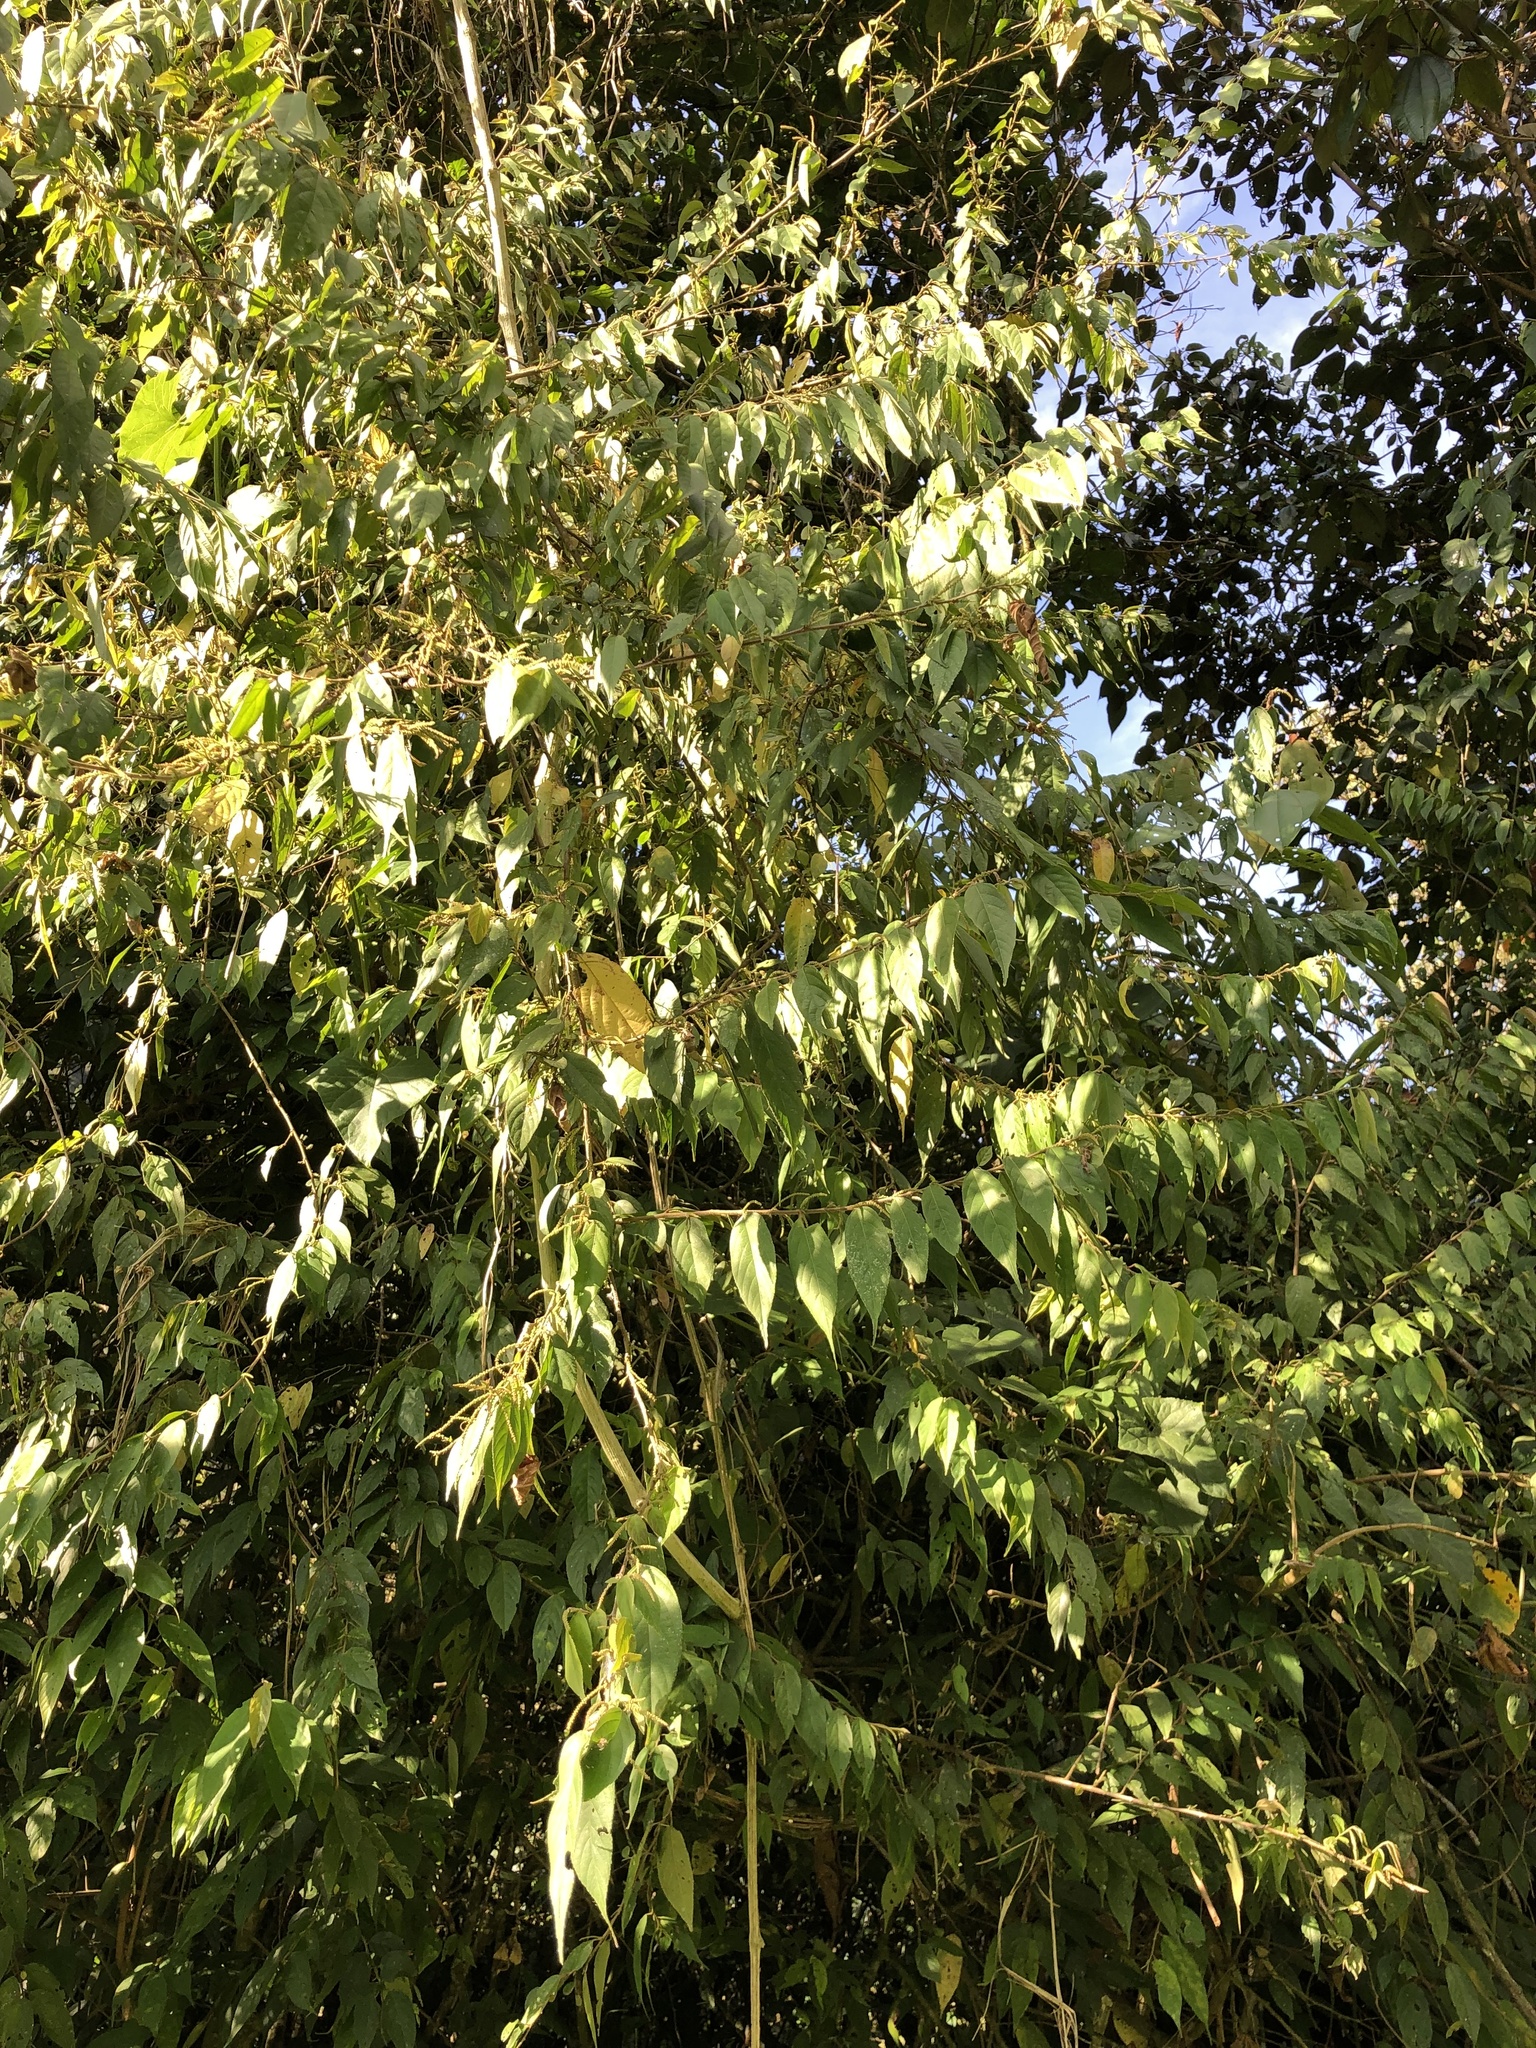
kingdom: Plantae
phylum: Tracheophyta
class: Magnoliopsida
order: Malpighiales
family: Euphorbiaceae
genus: Acalypha
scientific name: Acalypha diversifolia
